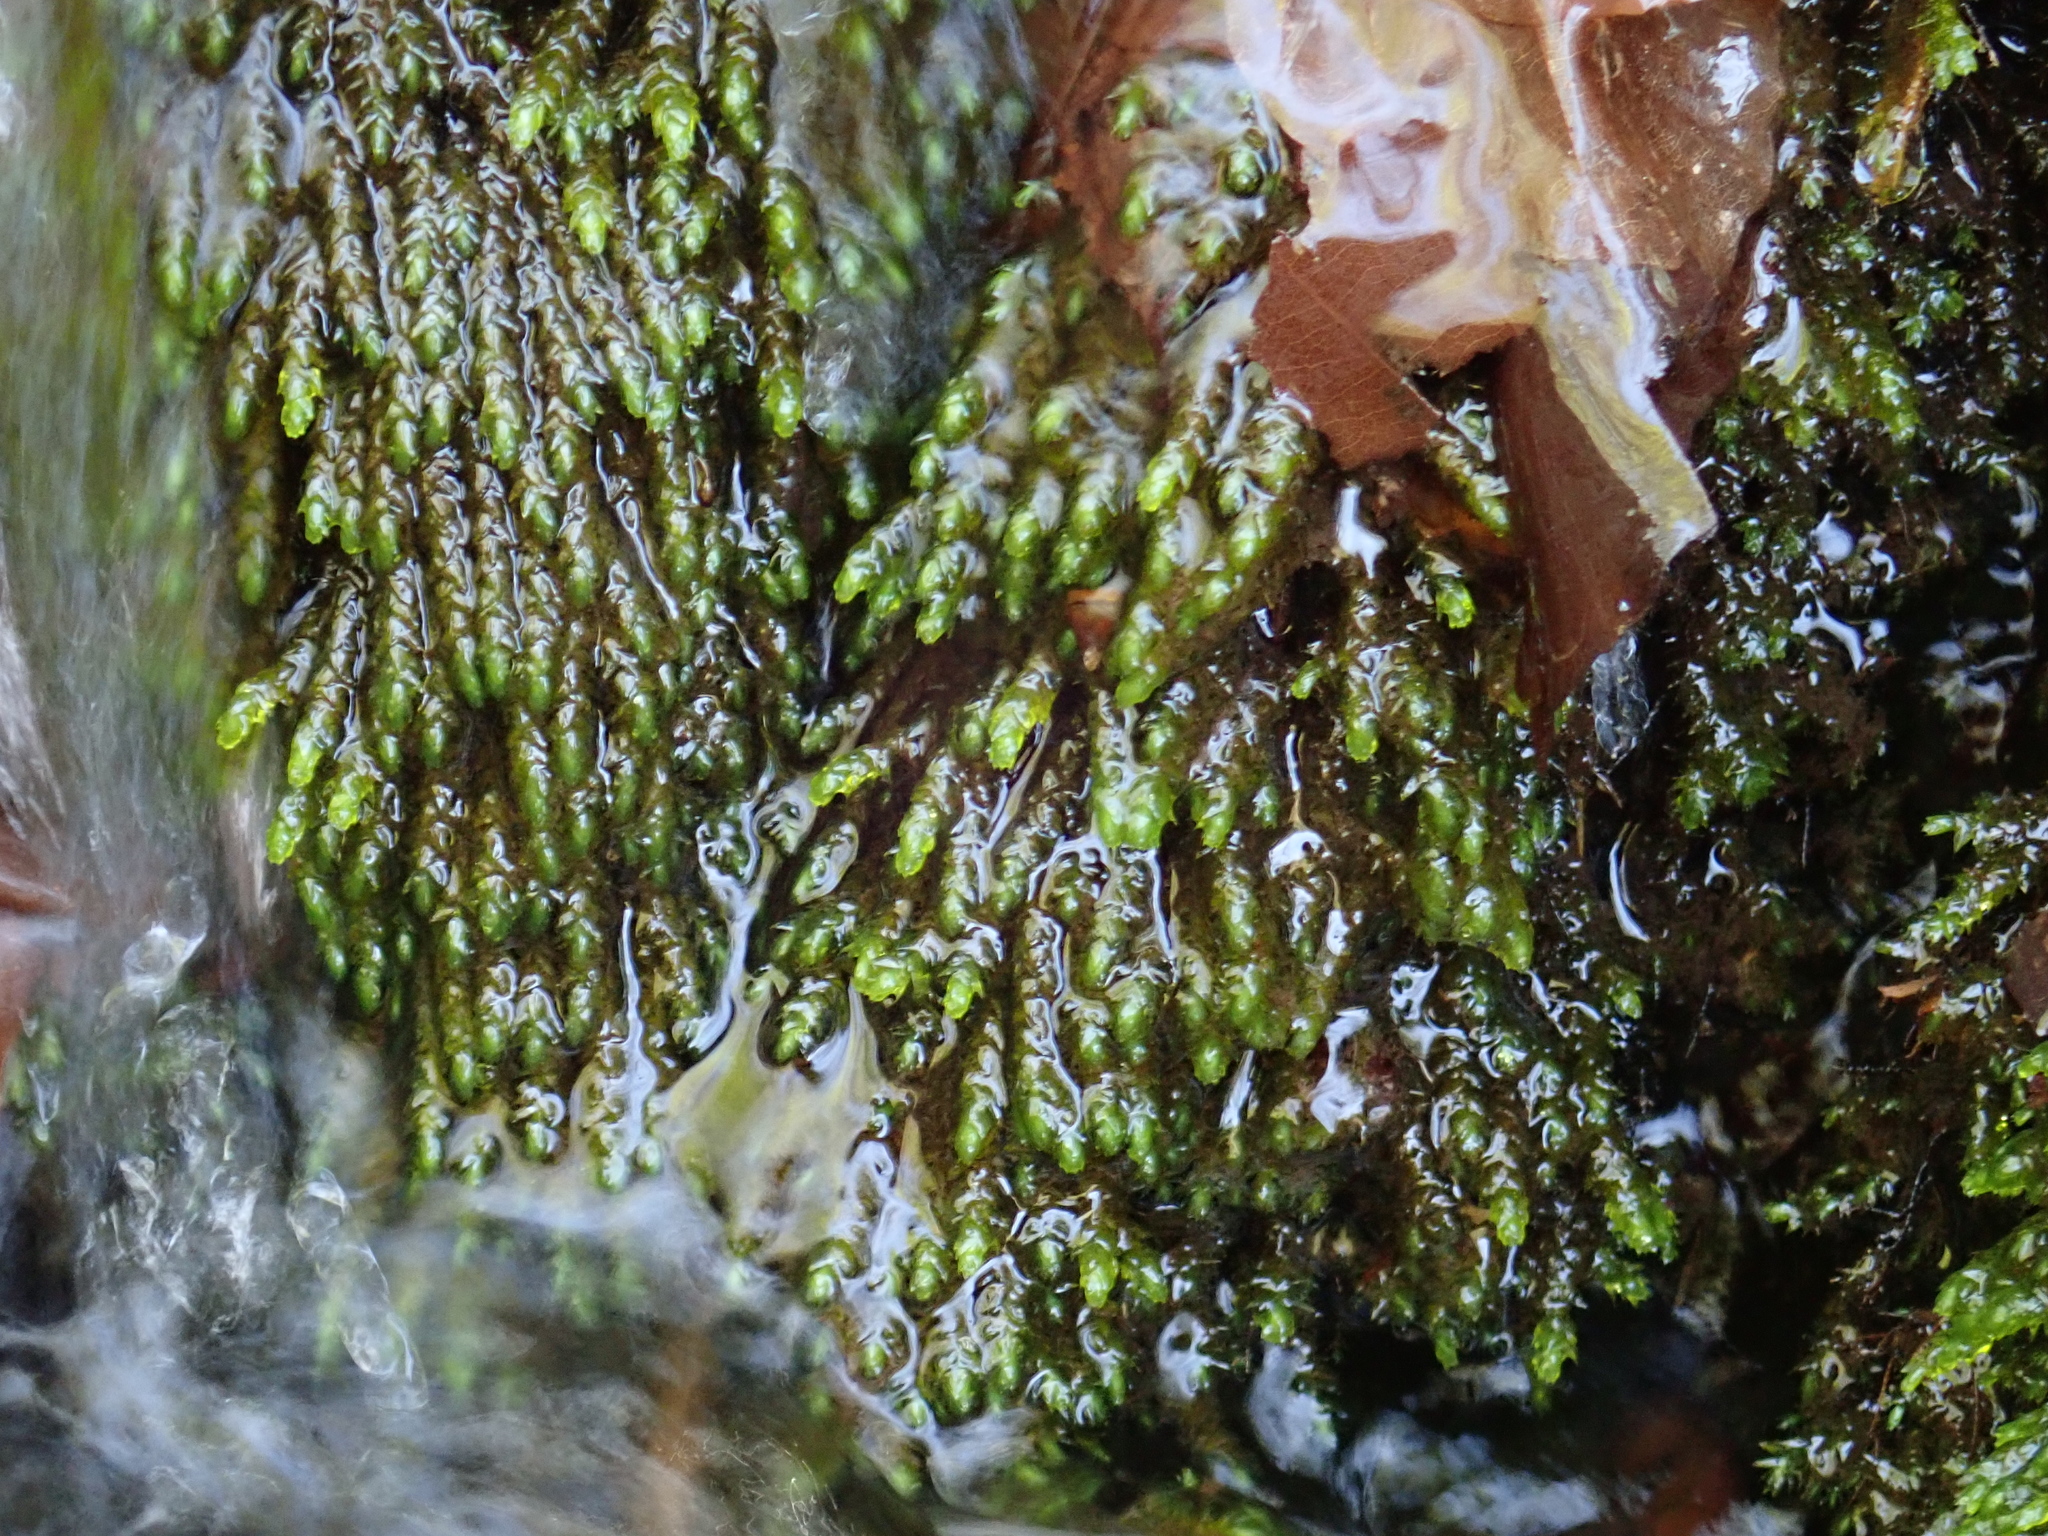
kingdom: Plantae
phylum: Bryophyta
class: Bryopsida
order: Hypnales
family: Brachytheciaceae
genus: Rhynchostegium
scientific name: Rhynchostegium riparioides
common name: Platyhypnidium moss
